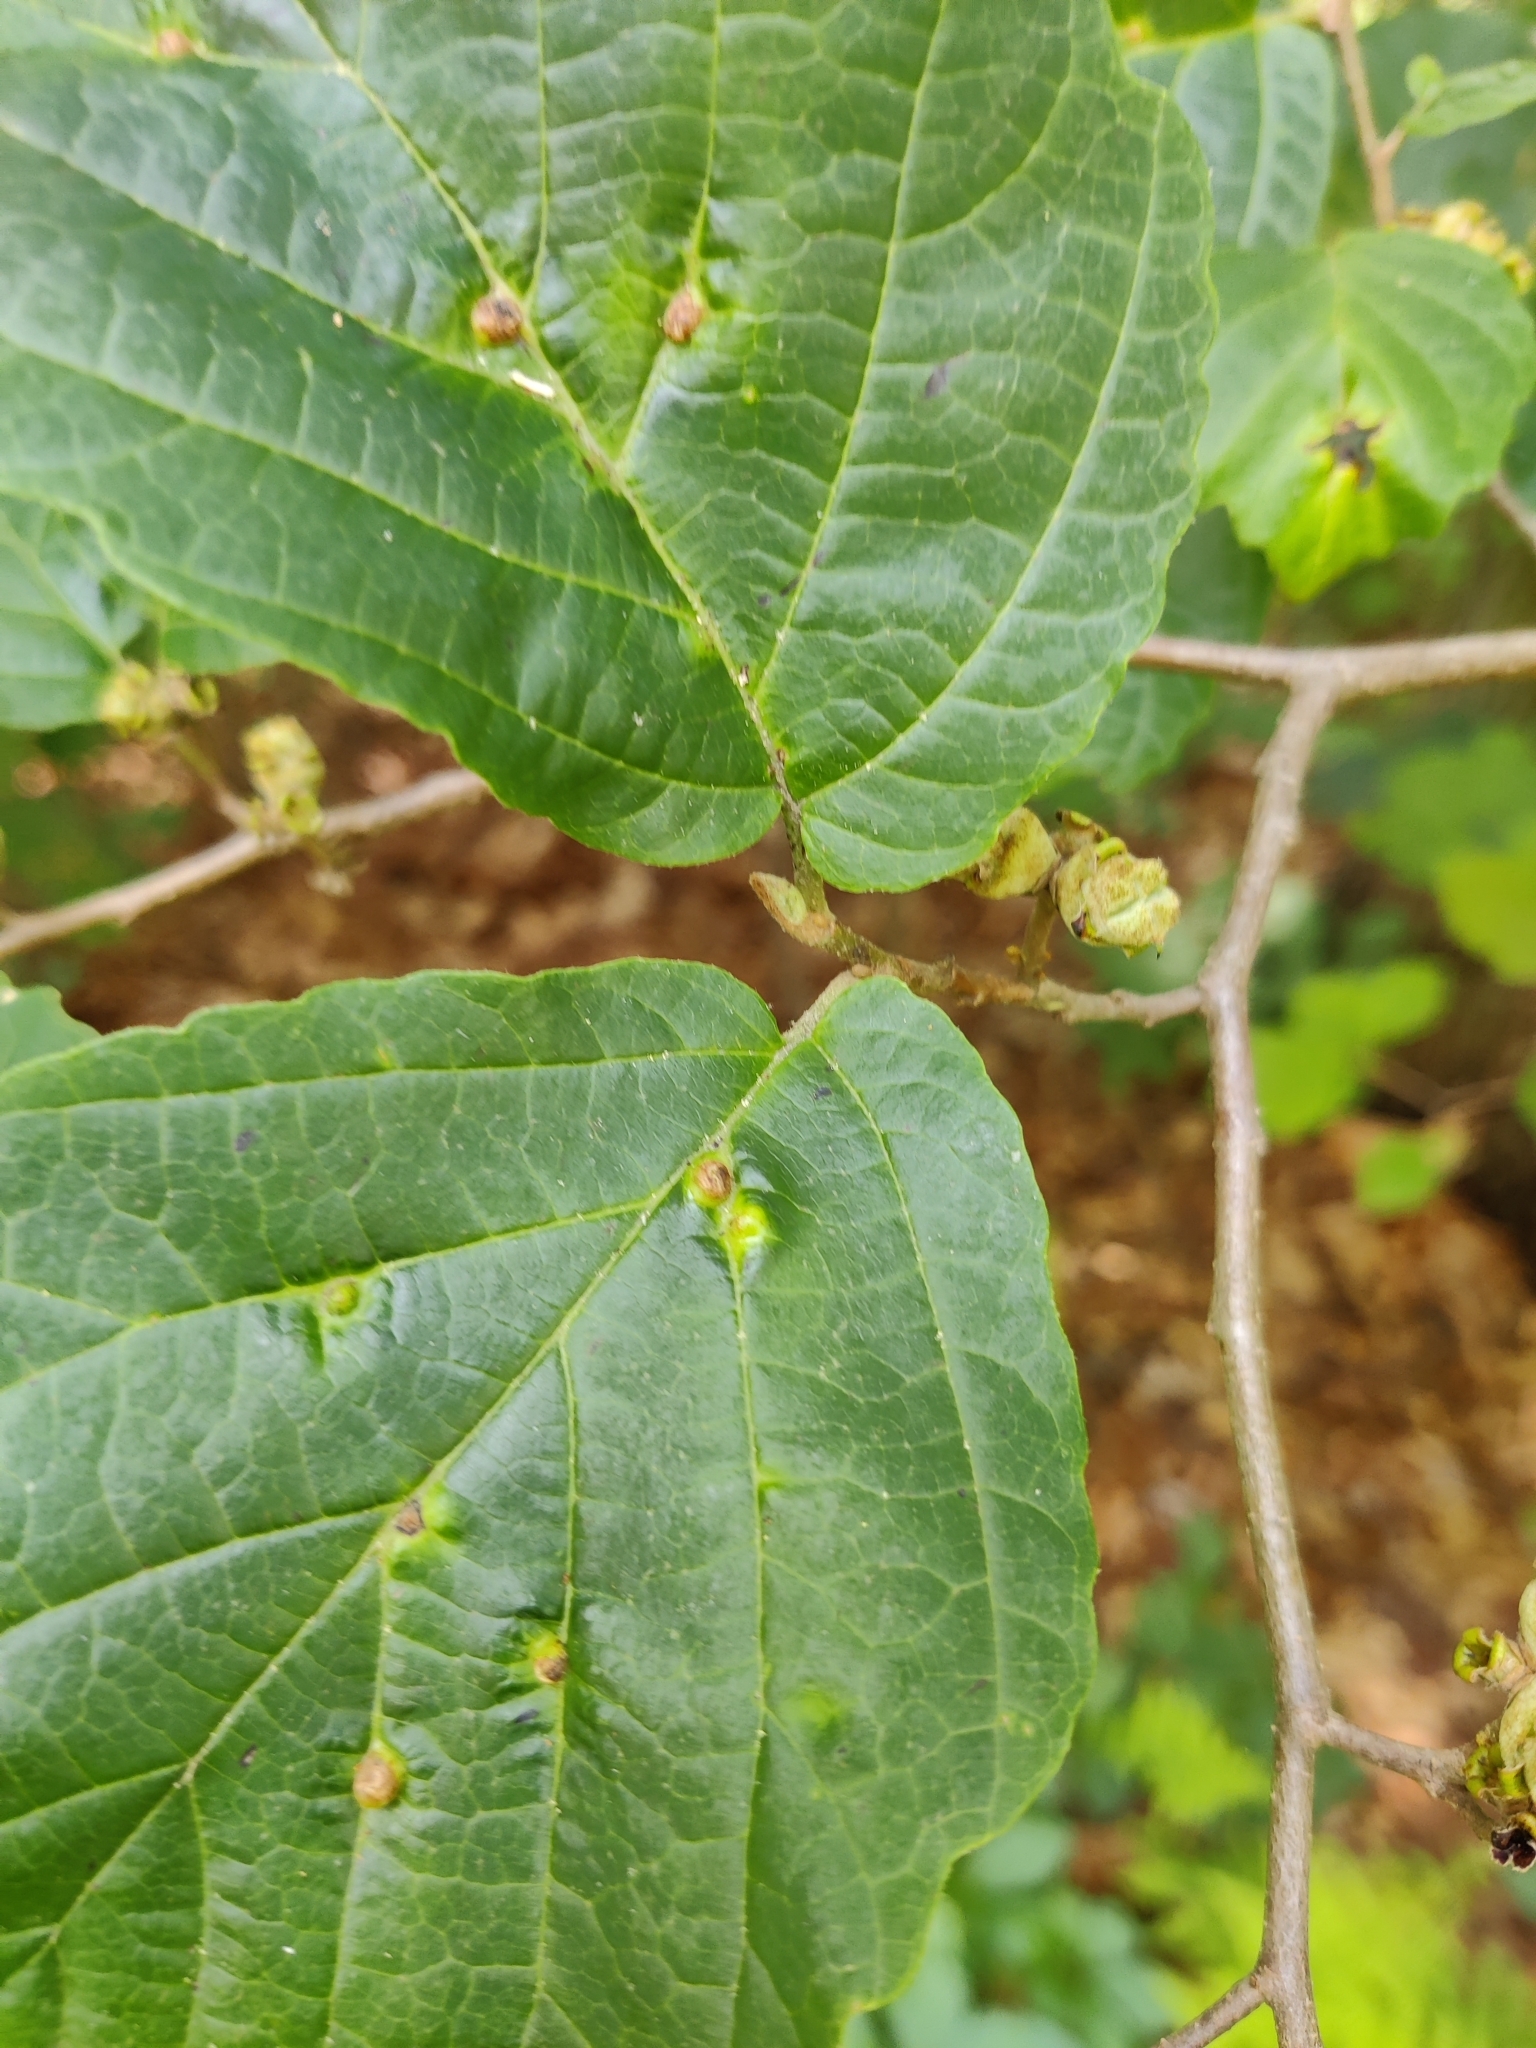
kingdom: Animalia
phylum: Arthropoda
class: Insecta
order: Hemiptera
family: Aphididae
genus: Hormaphis
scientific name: Hormaphis hamamelidis
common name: Witch-hazel cone gall aphid
